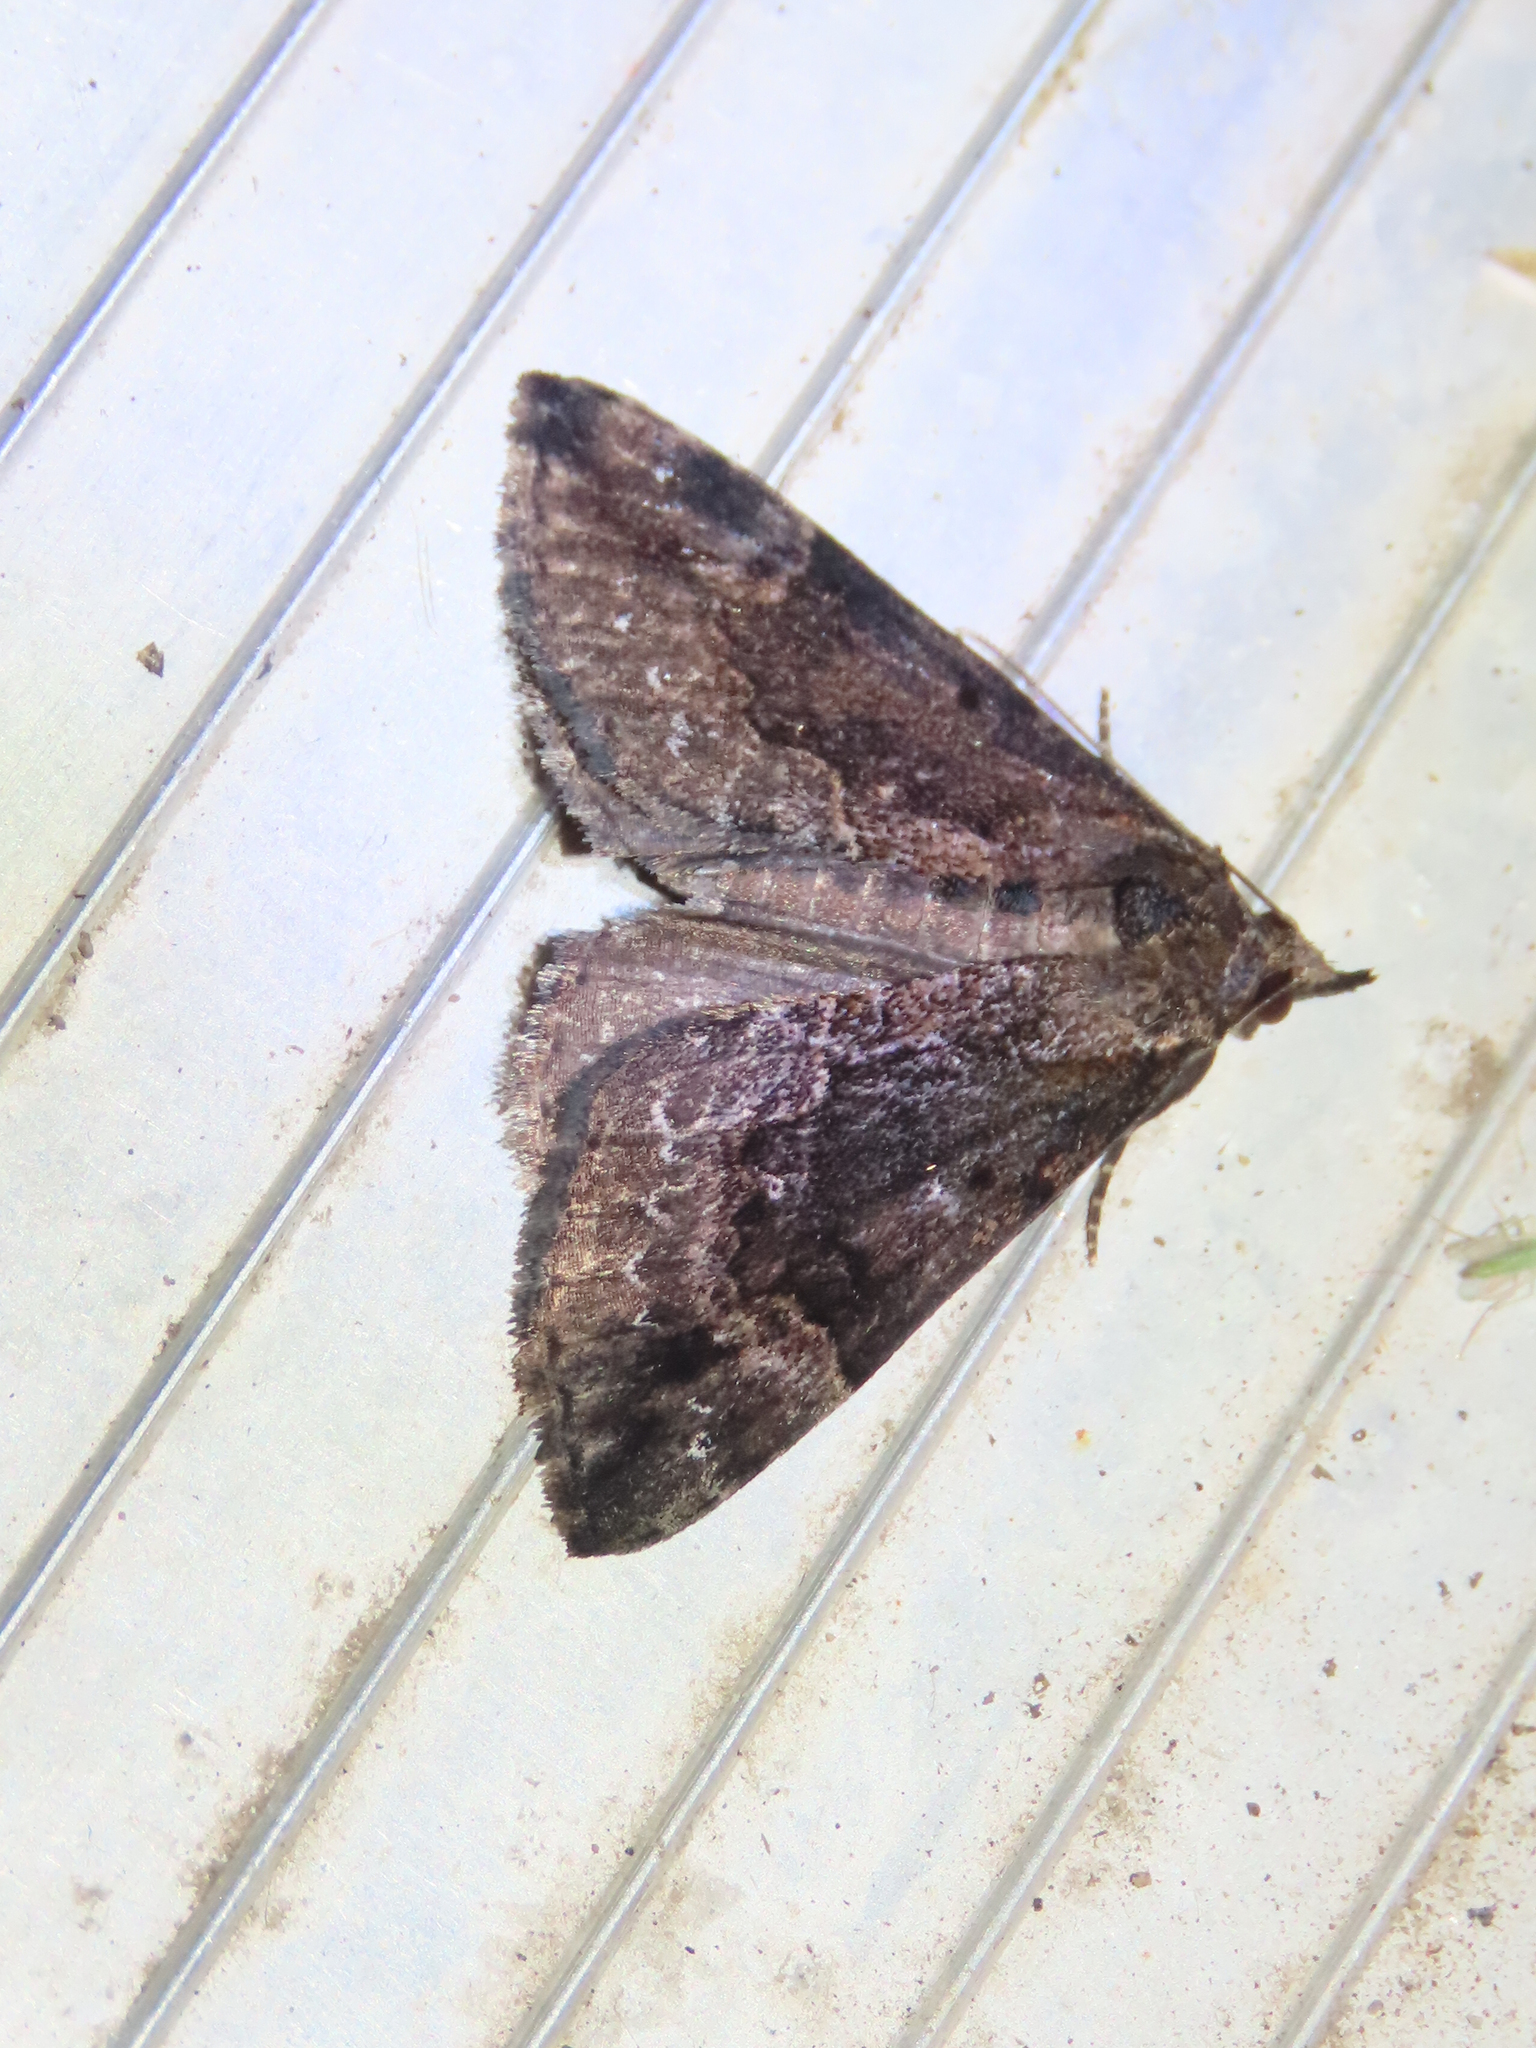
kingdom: Animalia
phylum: Arthropoda
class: Insecta
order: Lepidoptera
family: Erebidae
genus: Hypena
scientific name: Hypena palparia
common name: Mottled bomolocha moth
